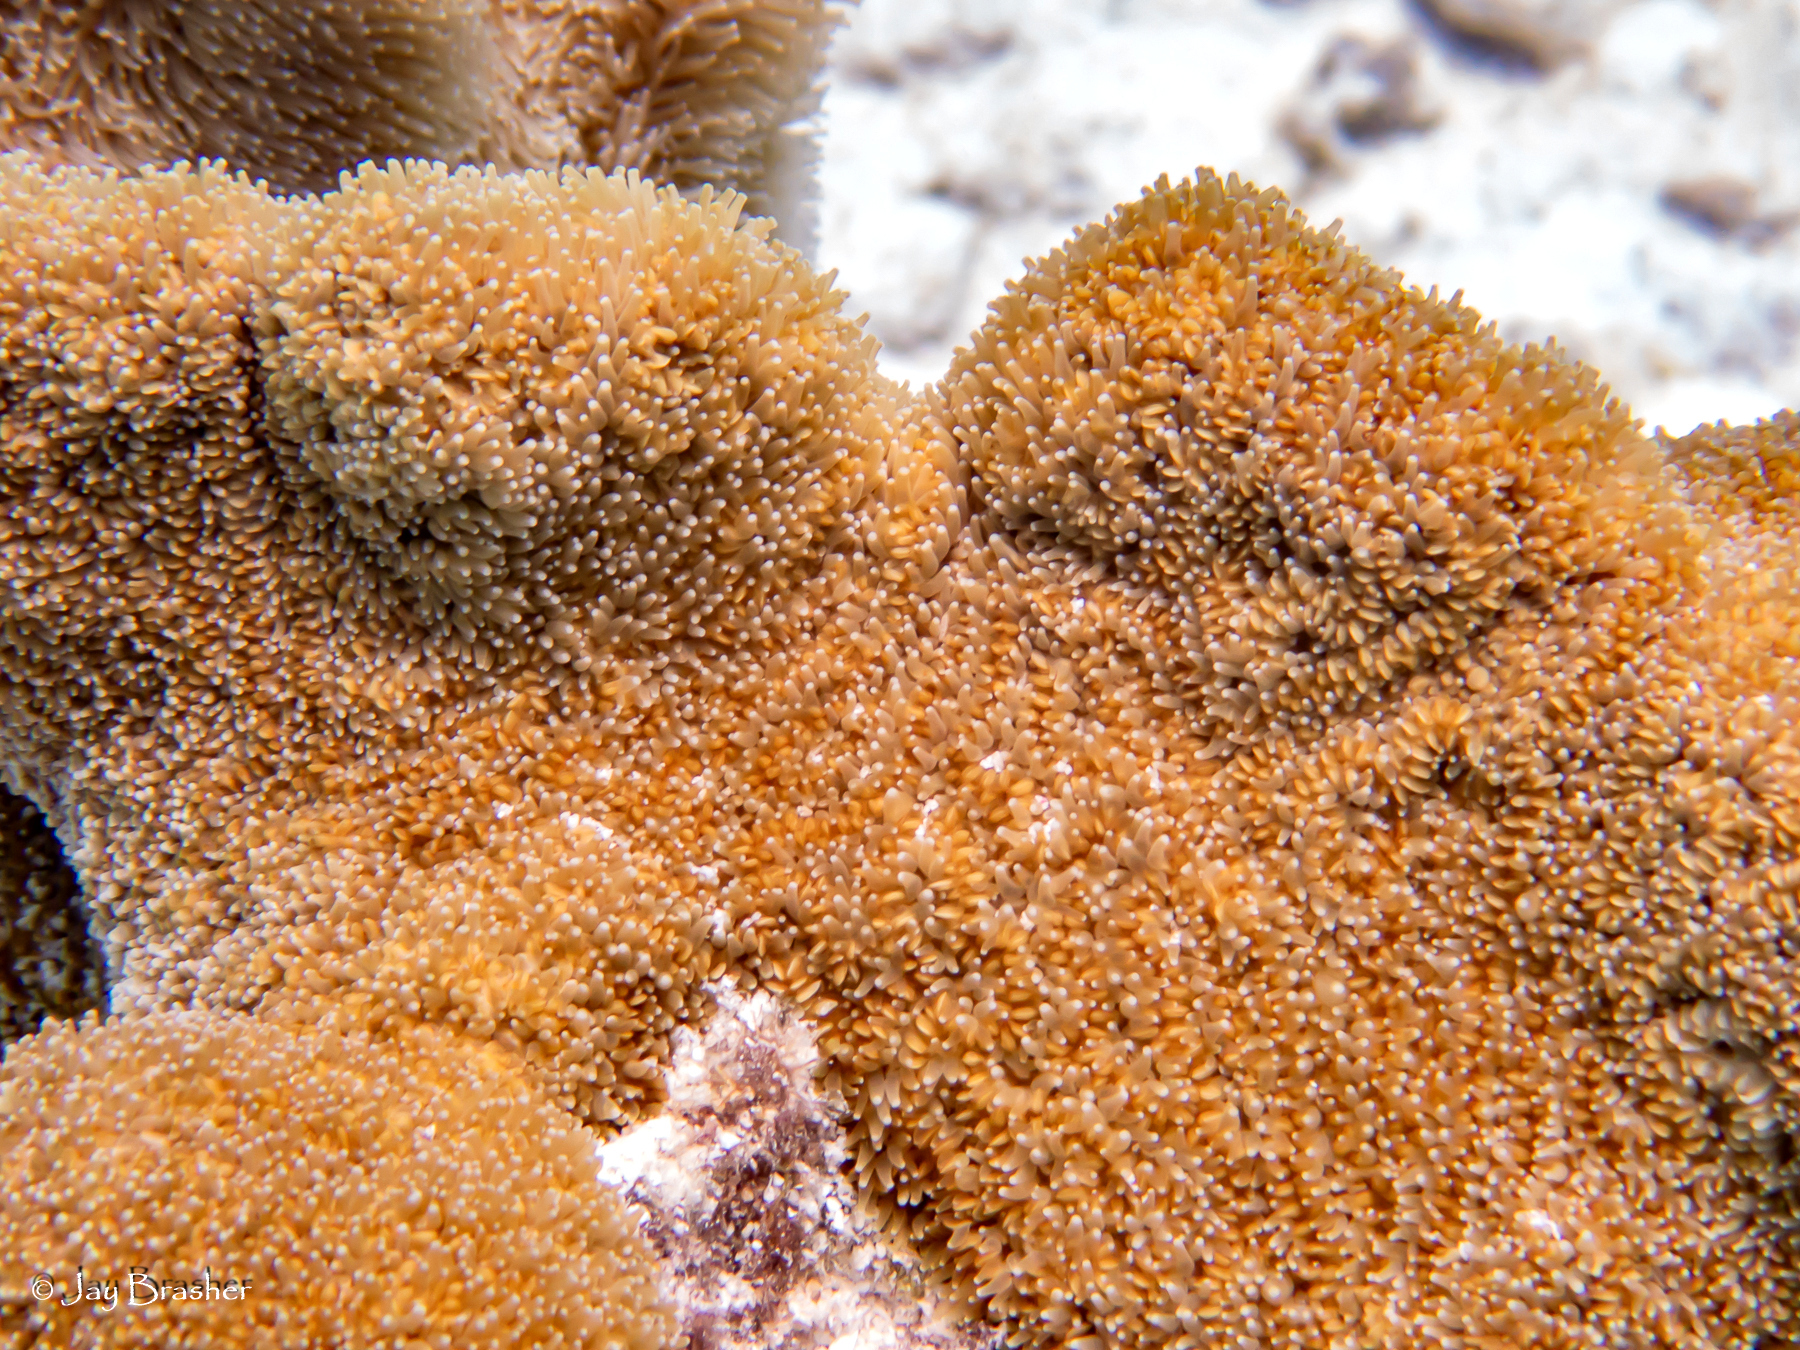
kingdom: Animalia
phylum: Cnidaria
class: Anthozoa
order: Scleractinia
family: Meandrinidae
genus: Dendrogyra
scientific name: Dendrogyra cylindrus
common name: Pillar coral
